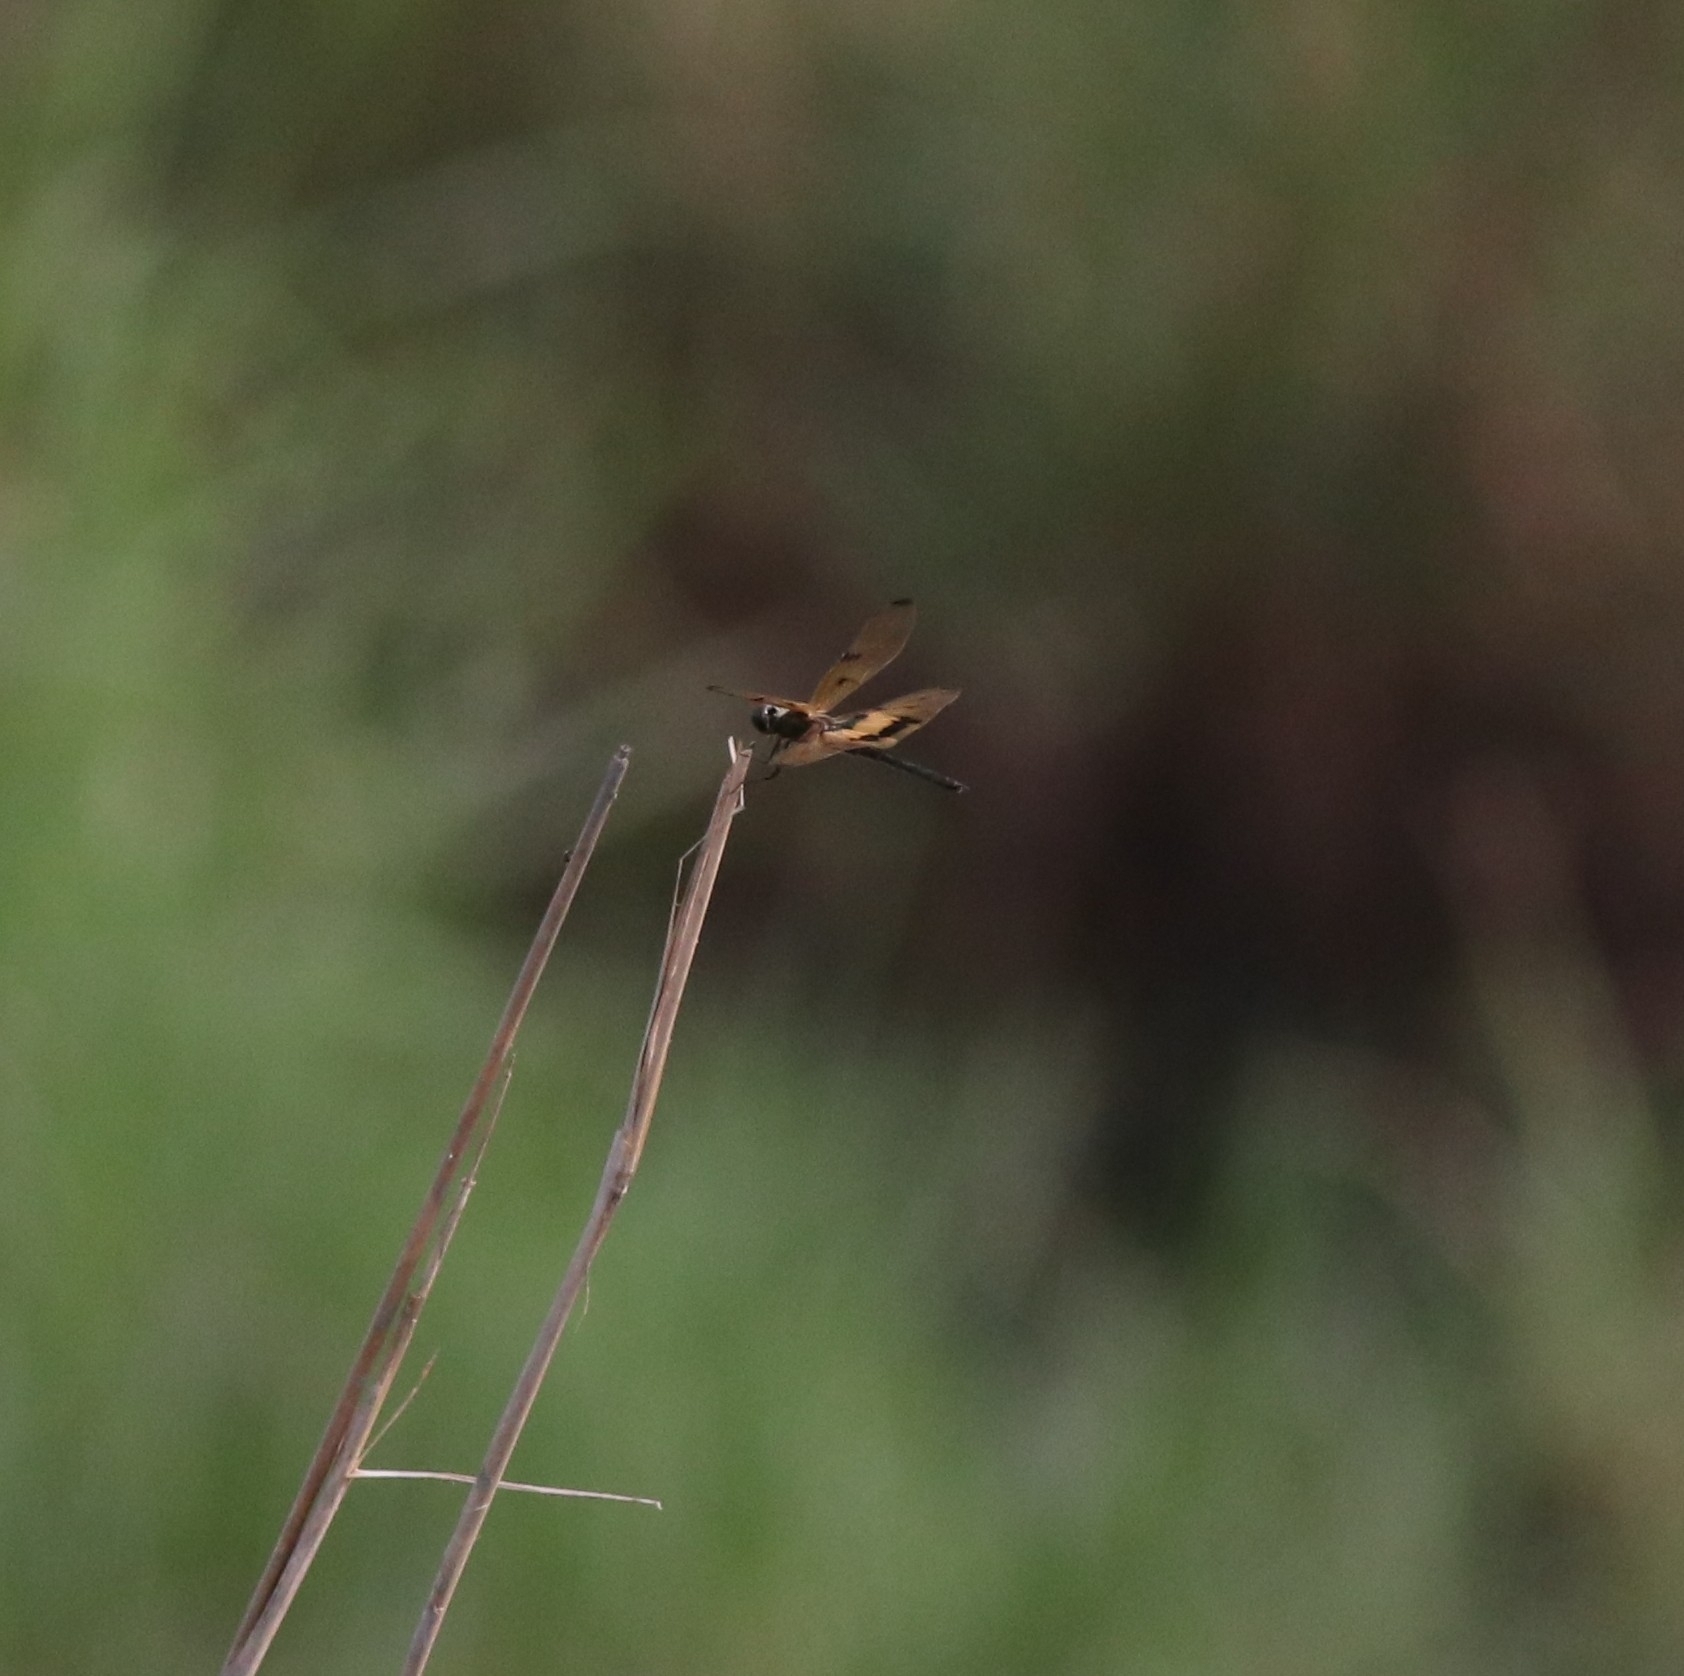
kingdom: Animalia
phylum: Arthropoda
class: Insecta
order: Odonata
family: Libellulidae
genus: Rhyothemis
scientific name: Rhyothemis variegata
